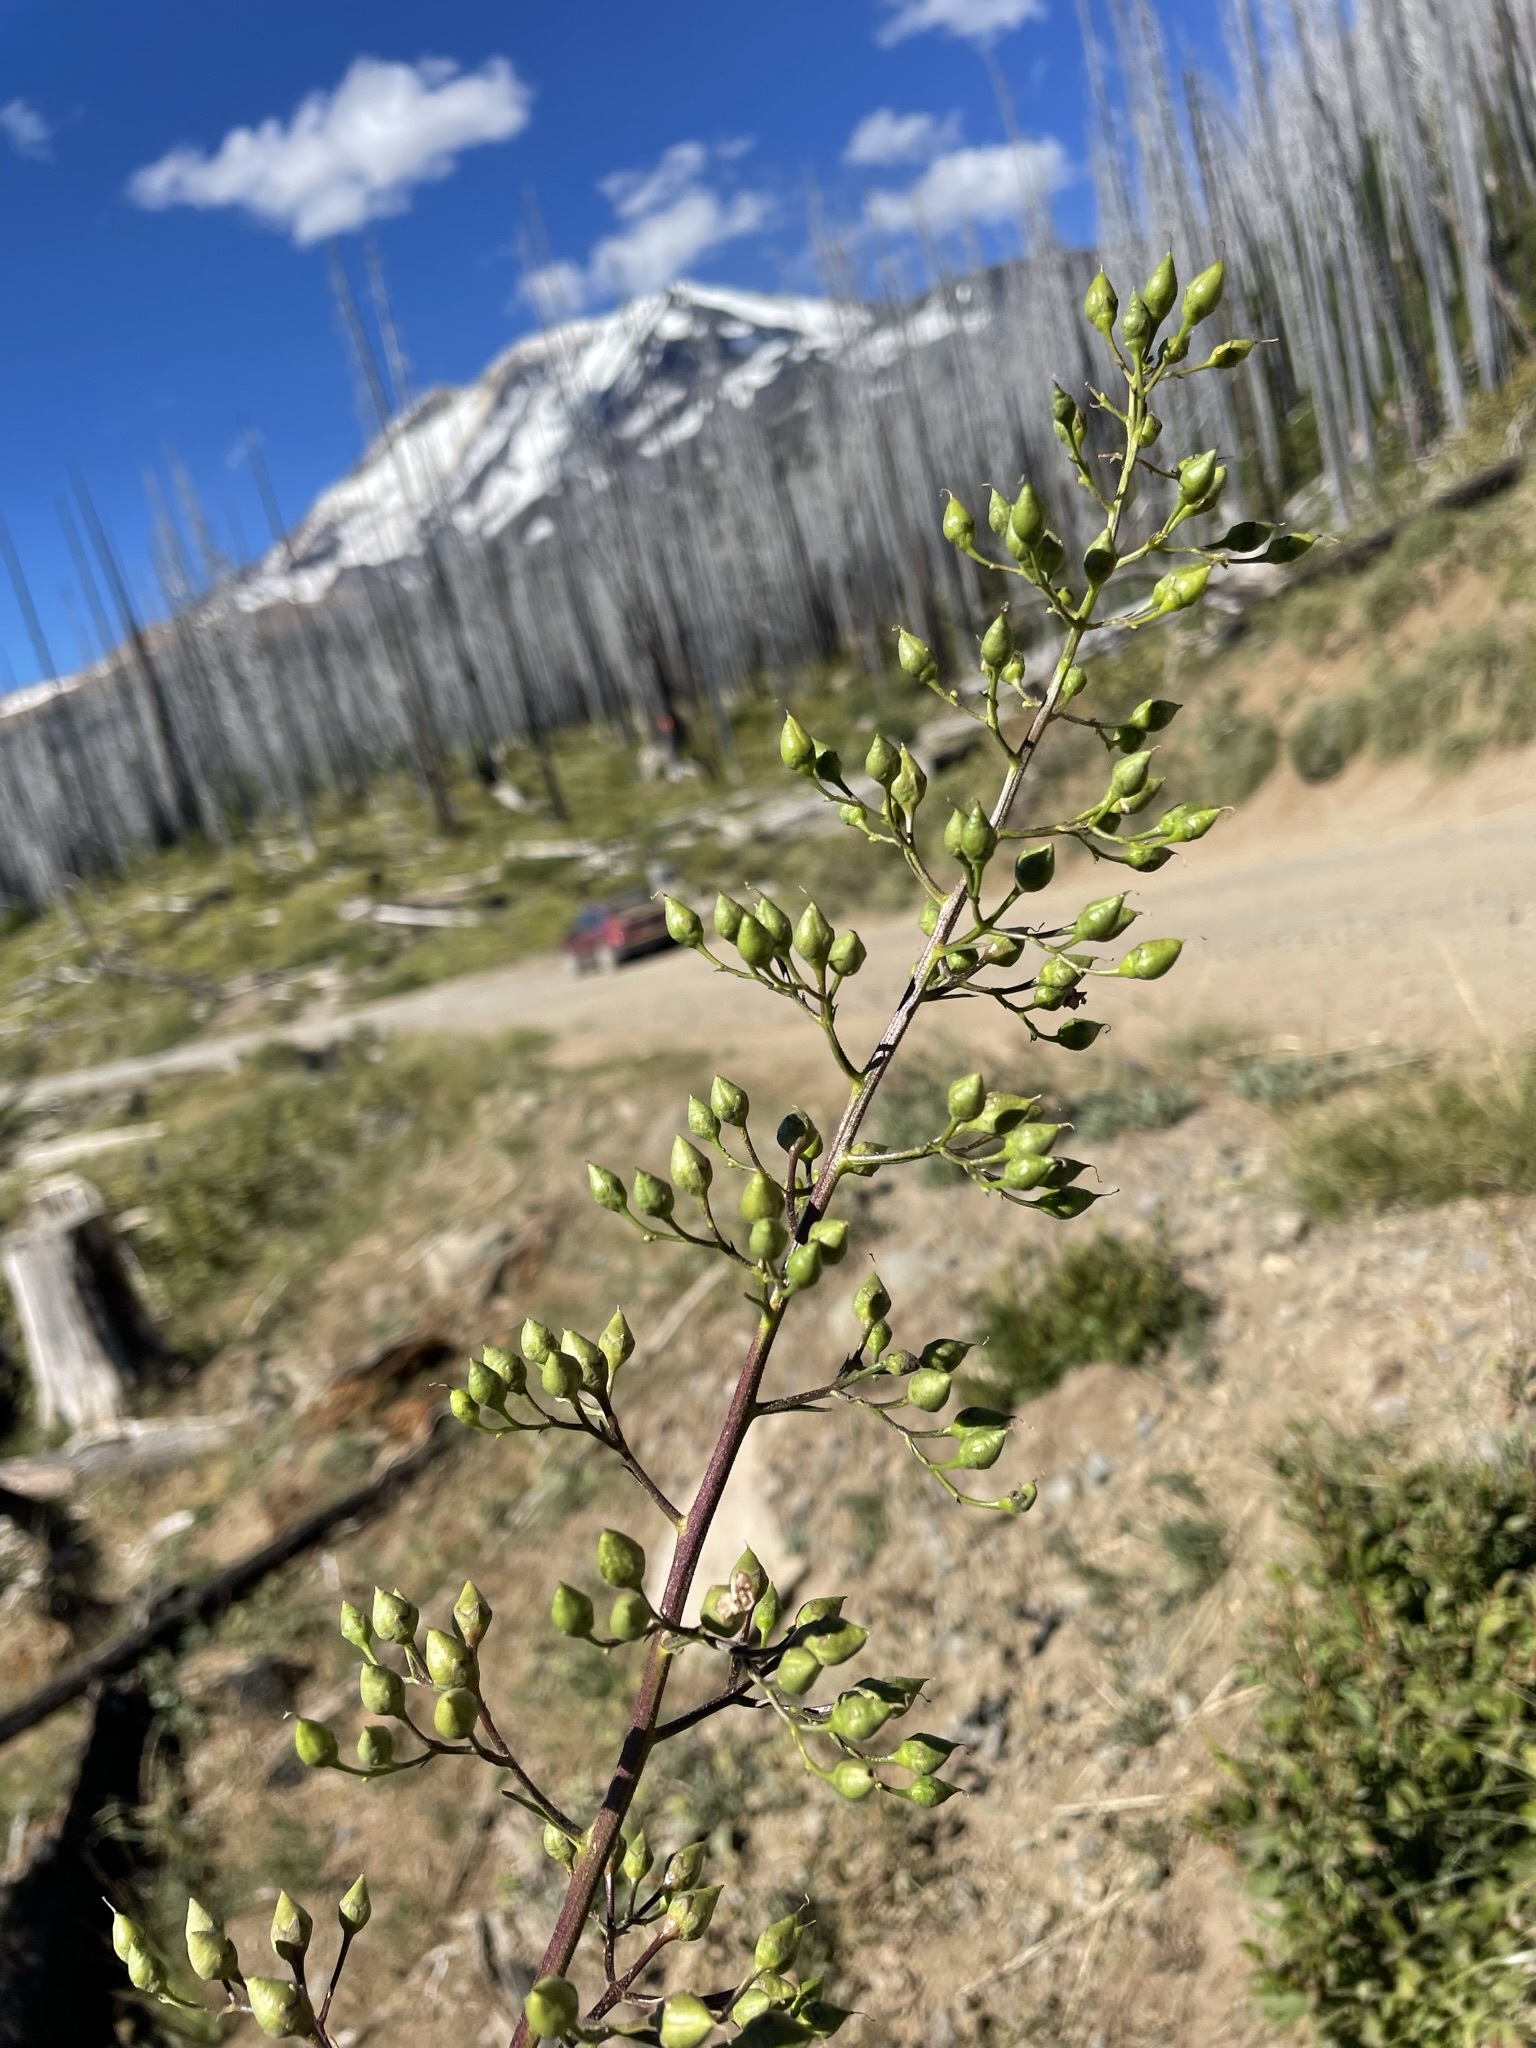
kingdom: Plantae
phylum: Tracheophyta
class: Magnoliopsida
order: Lamiales
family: Scrophulariaceae
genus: Scrophularia
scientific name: Scrophularia lanceolata
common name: American figwort
